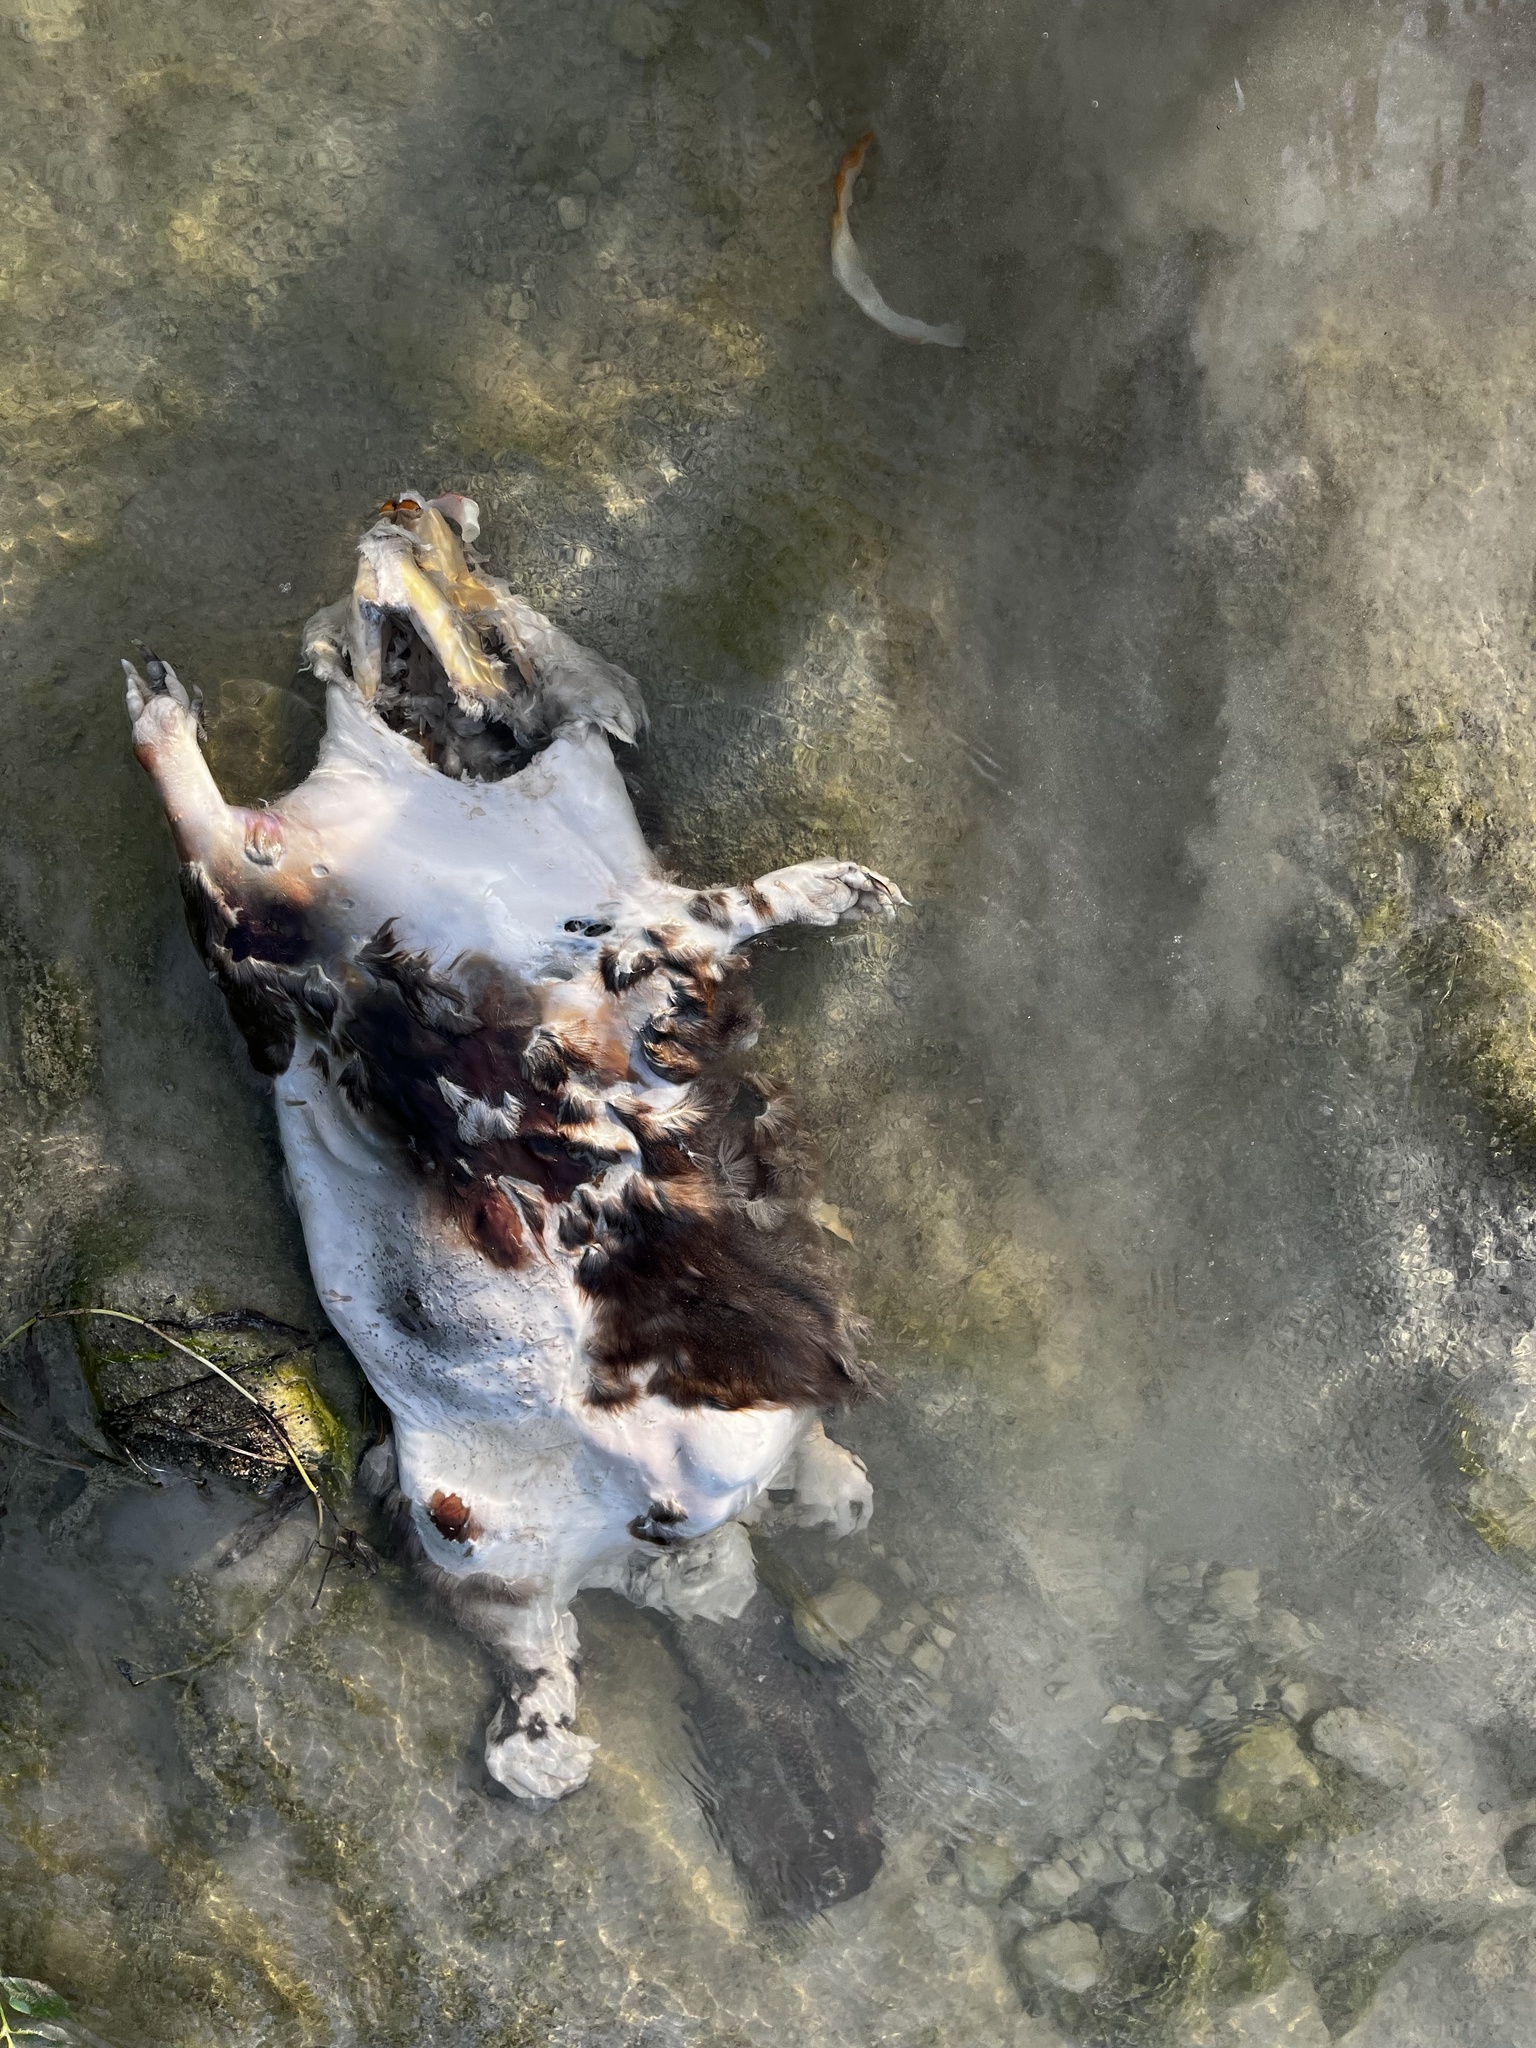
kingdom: Animalia
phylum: Chordata
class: Mammalia
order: Rodentia
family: Castoridae
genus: Castor
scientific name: Castor canadensis
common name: American beaver
